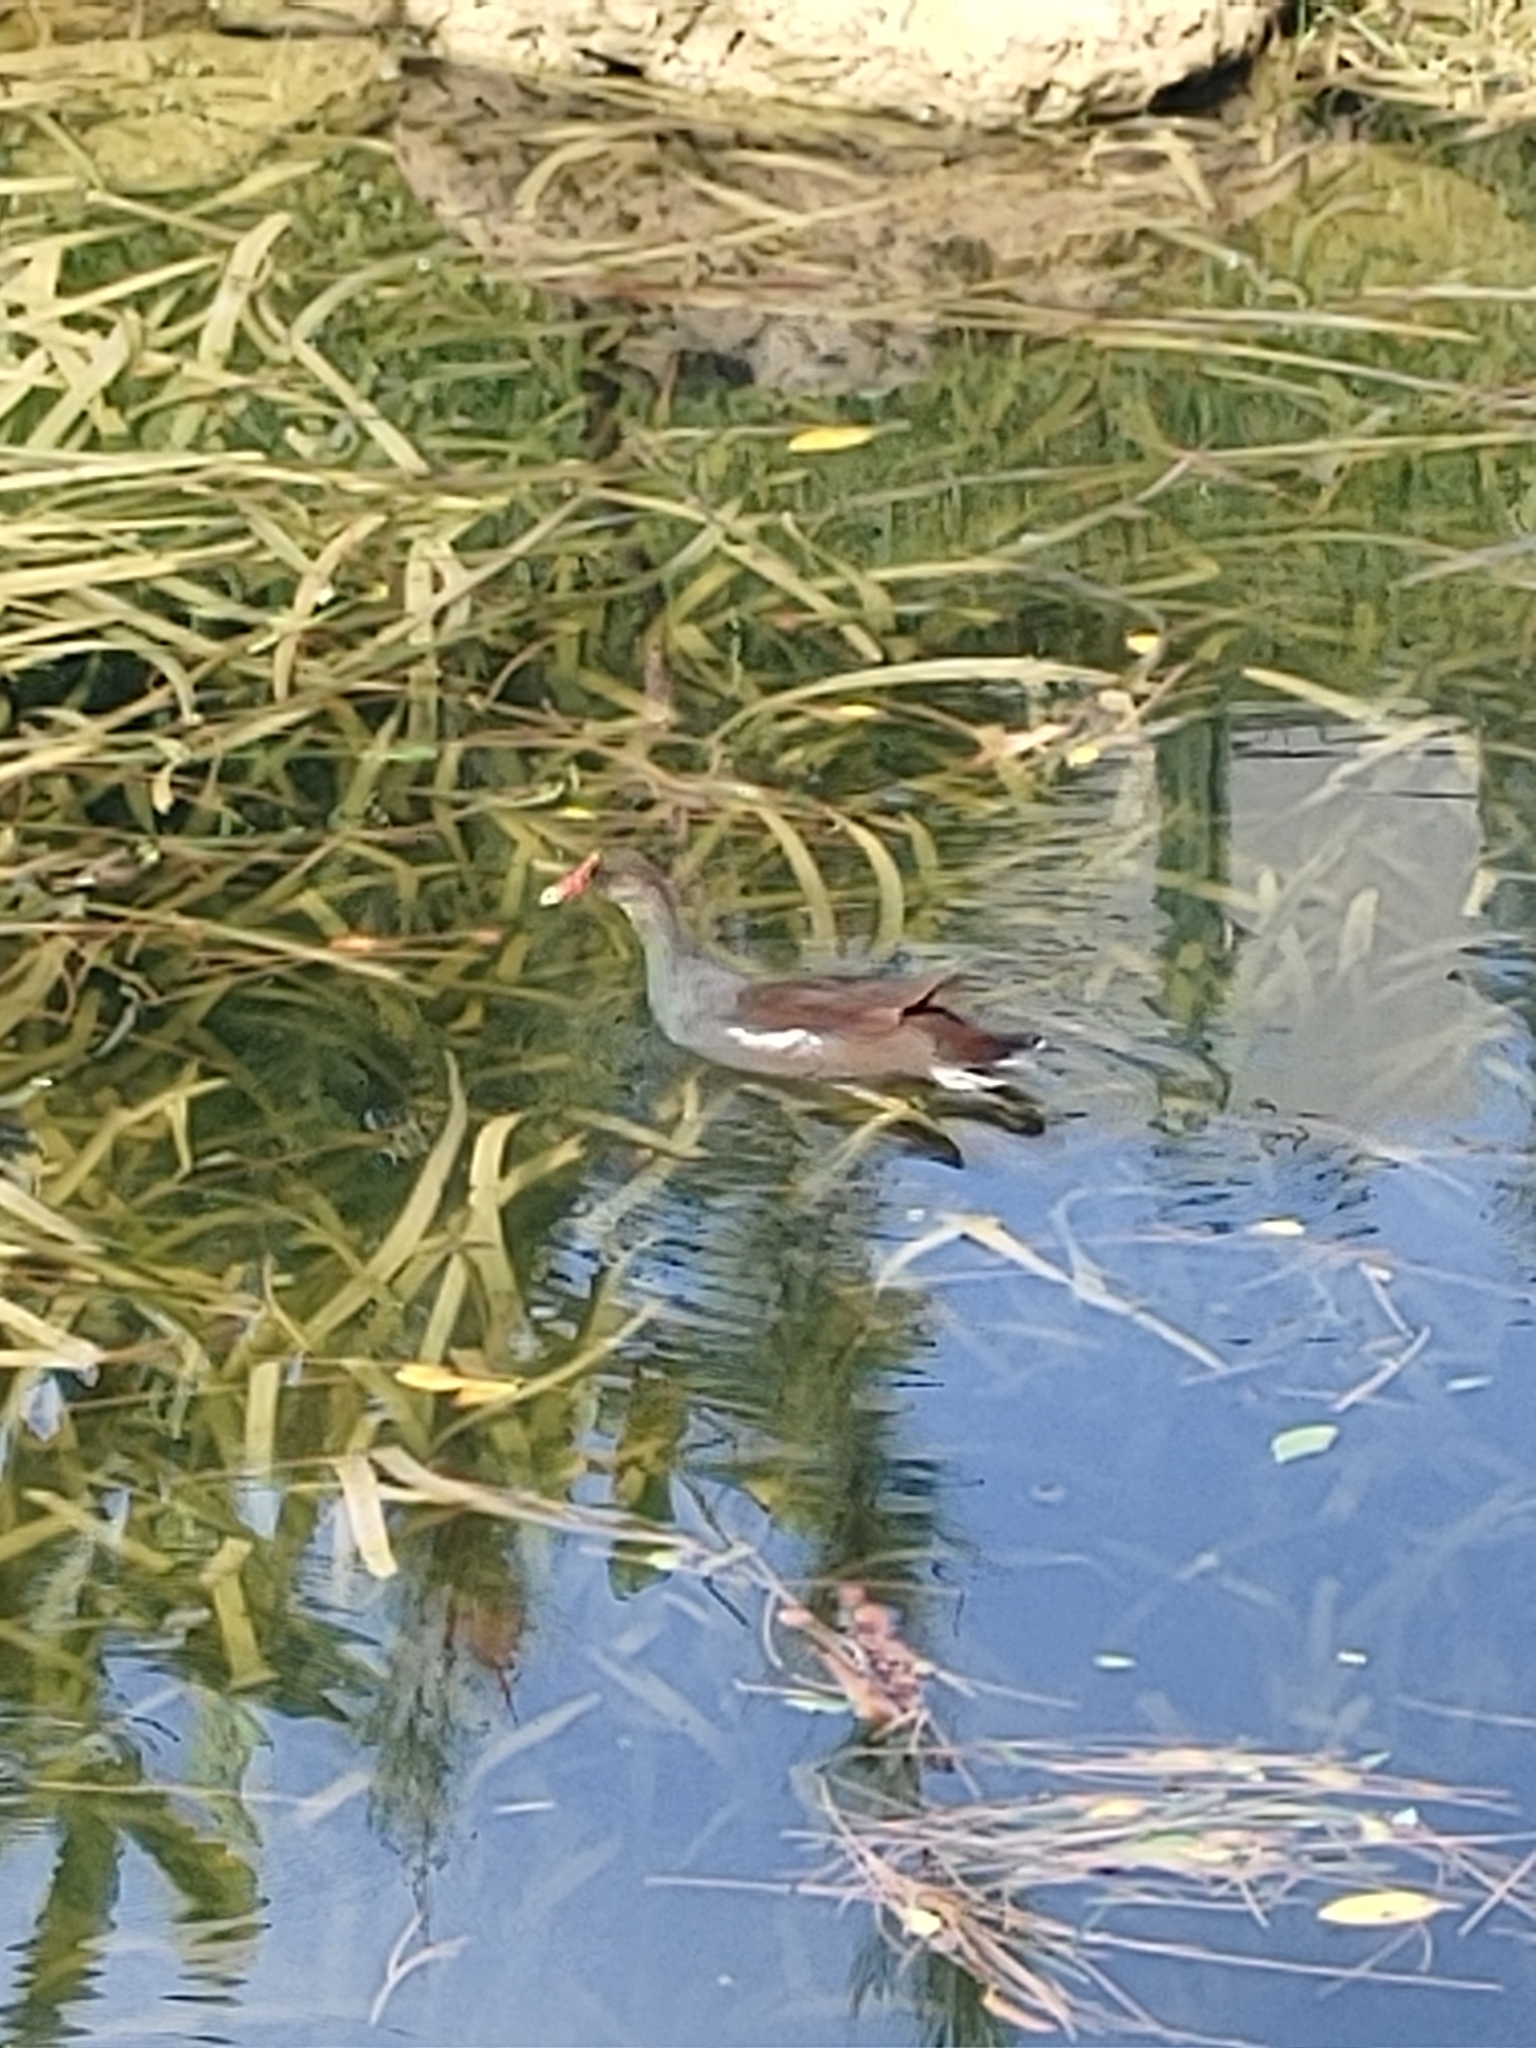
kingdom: Animalia
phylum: Chordata
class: Aves
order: Gruiformes
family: Rallidae
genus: Gallinula
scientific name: Gallinula chloropus
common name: Common moorhen
